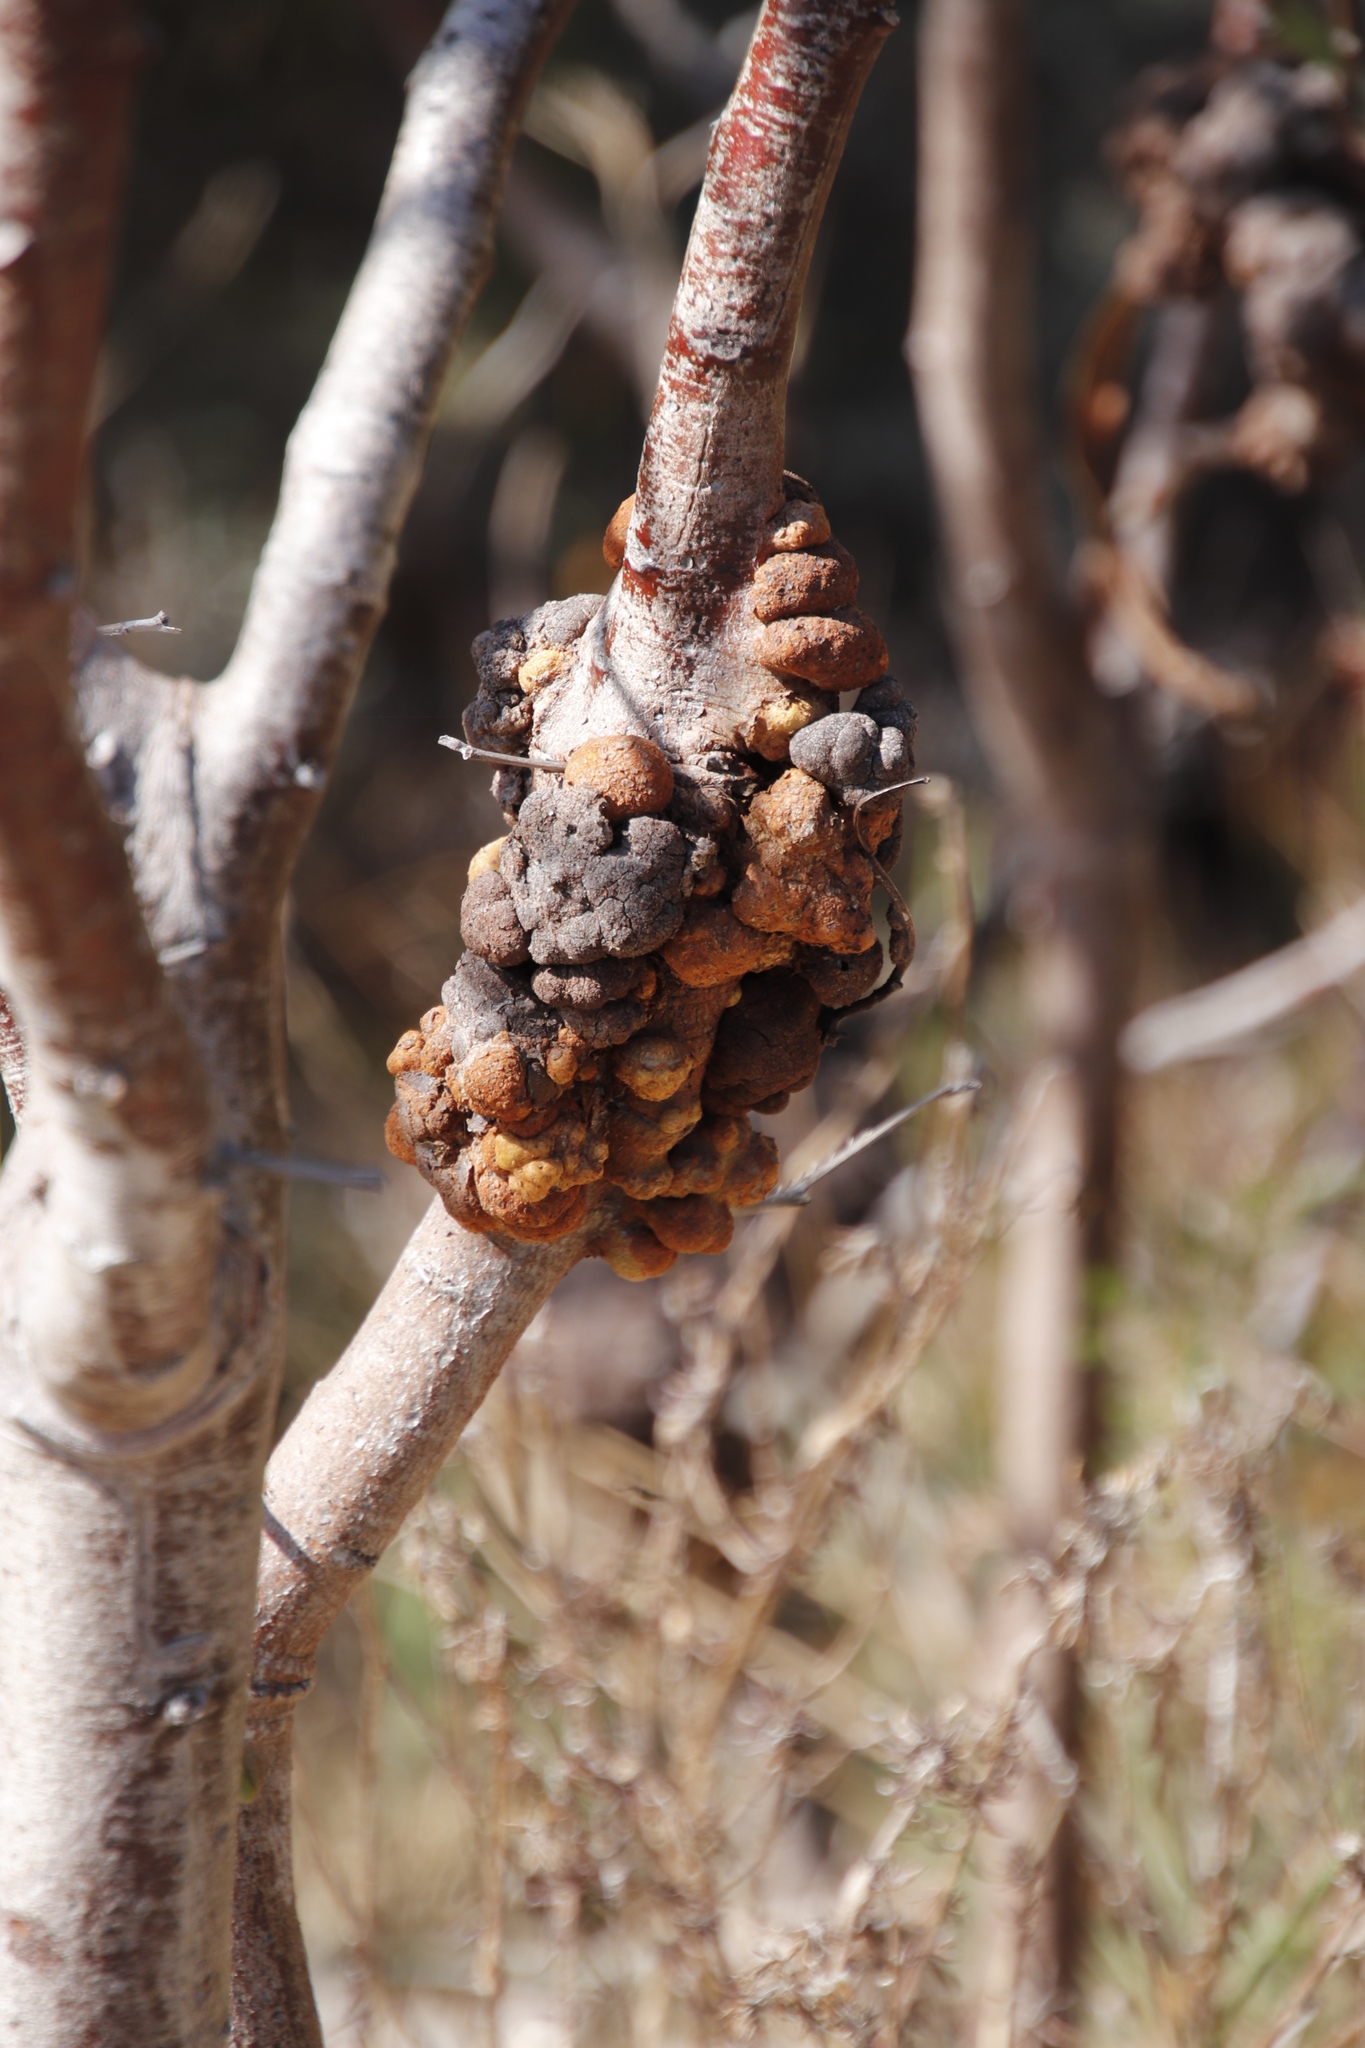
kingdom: Fungi
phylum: Basidiomycota
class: Pucciniomycetes
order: Pucciniales
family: Uromycladiaceae
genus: Uromycladium
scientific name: Uromycladium morrisii
